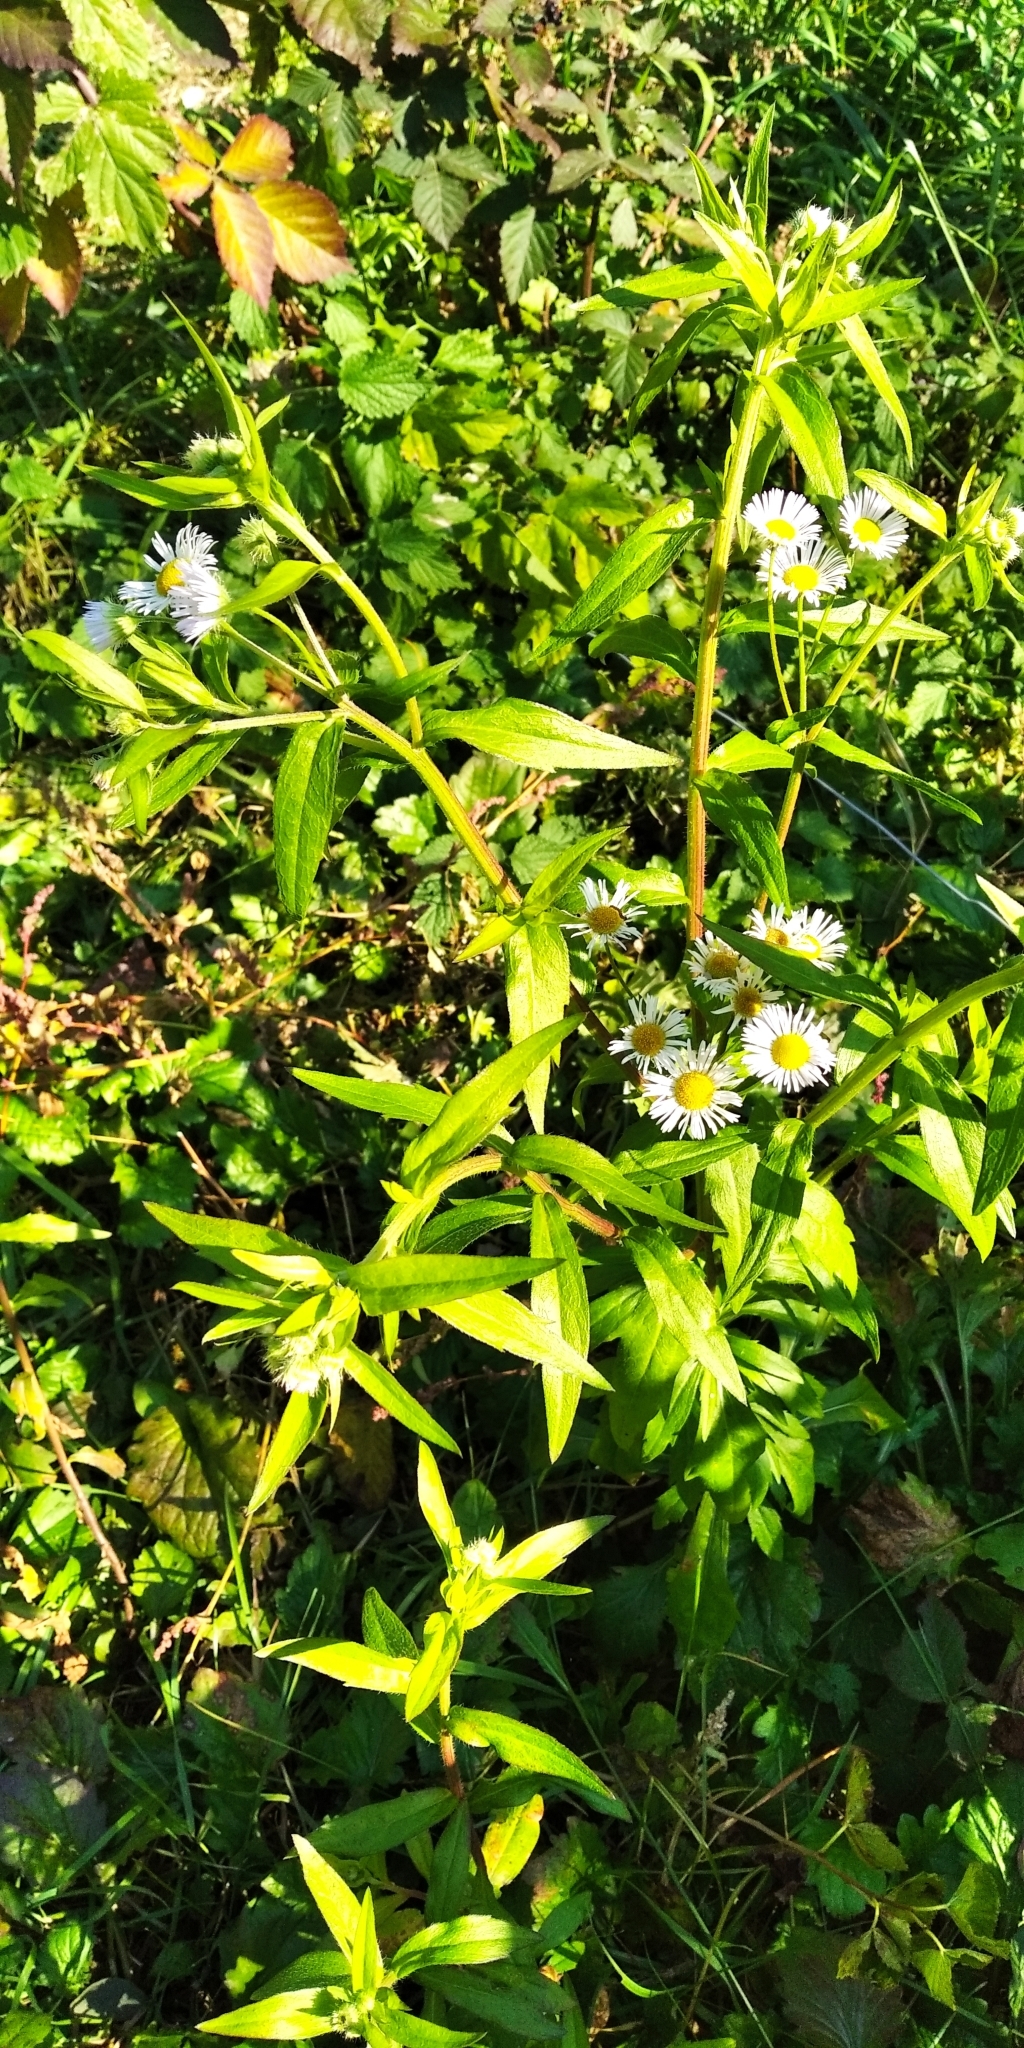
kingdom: Plantae
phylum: Tracheophyta
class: Magnoliopsida
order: Asterales
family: Asteraceae
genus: Erigeron
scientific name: Erigeron annuus
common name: Tall fleabane
